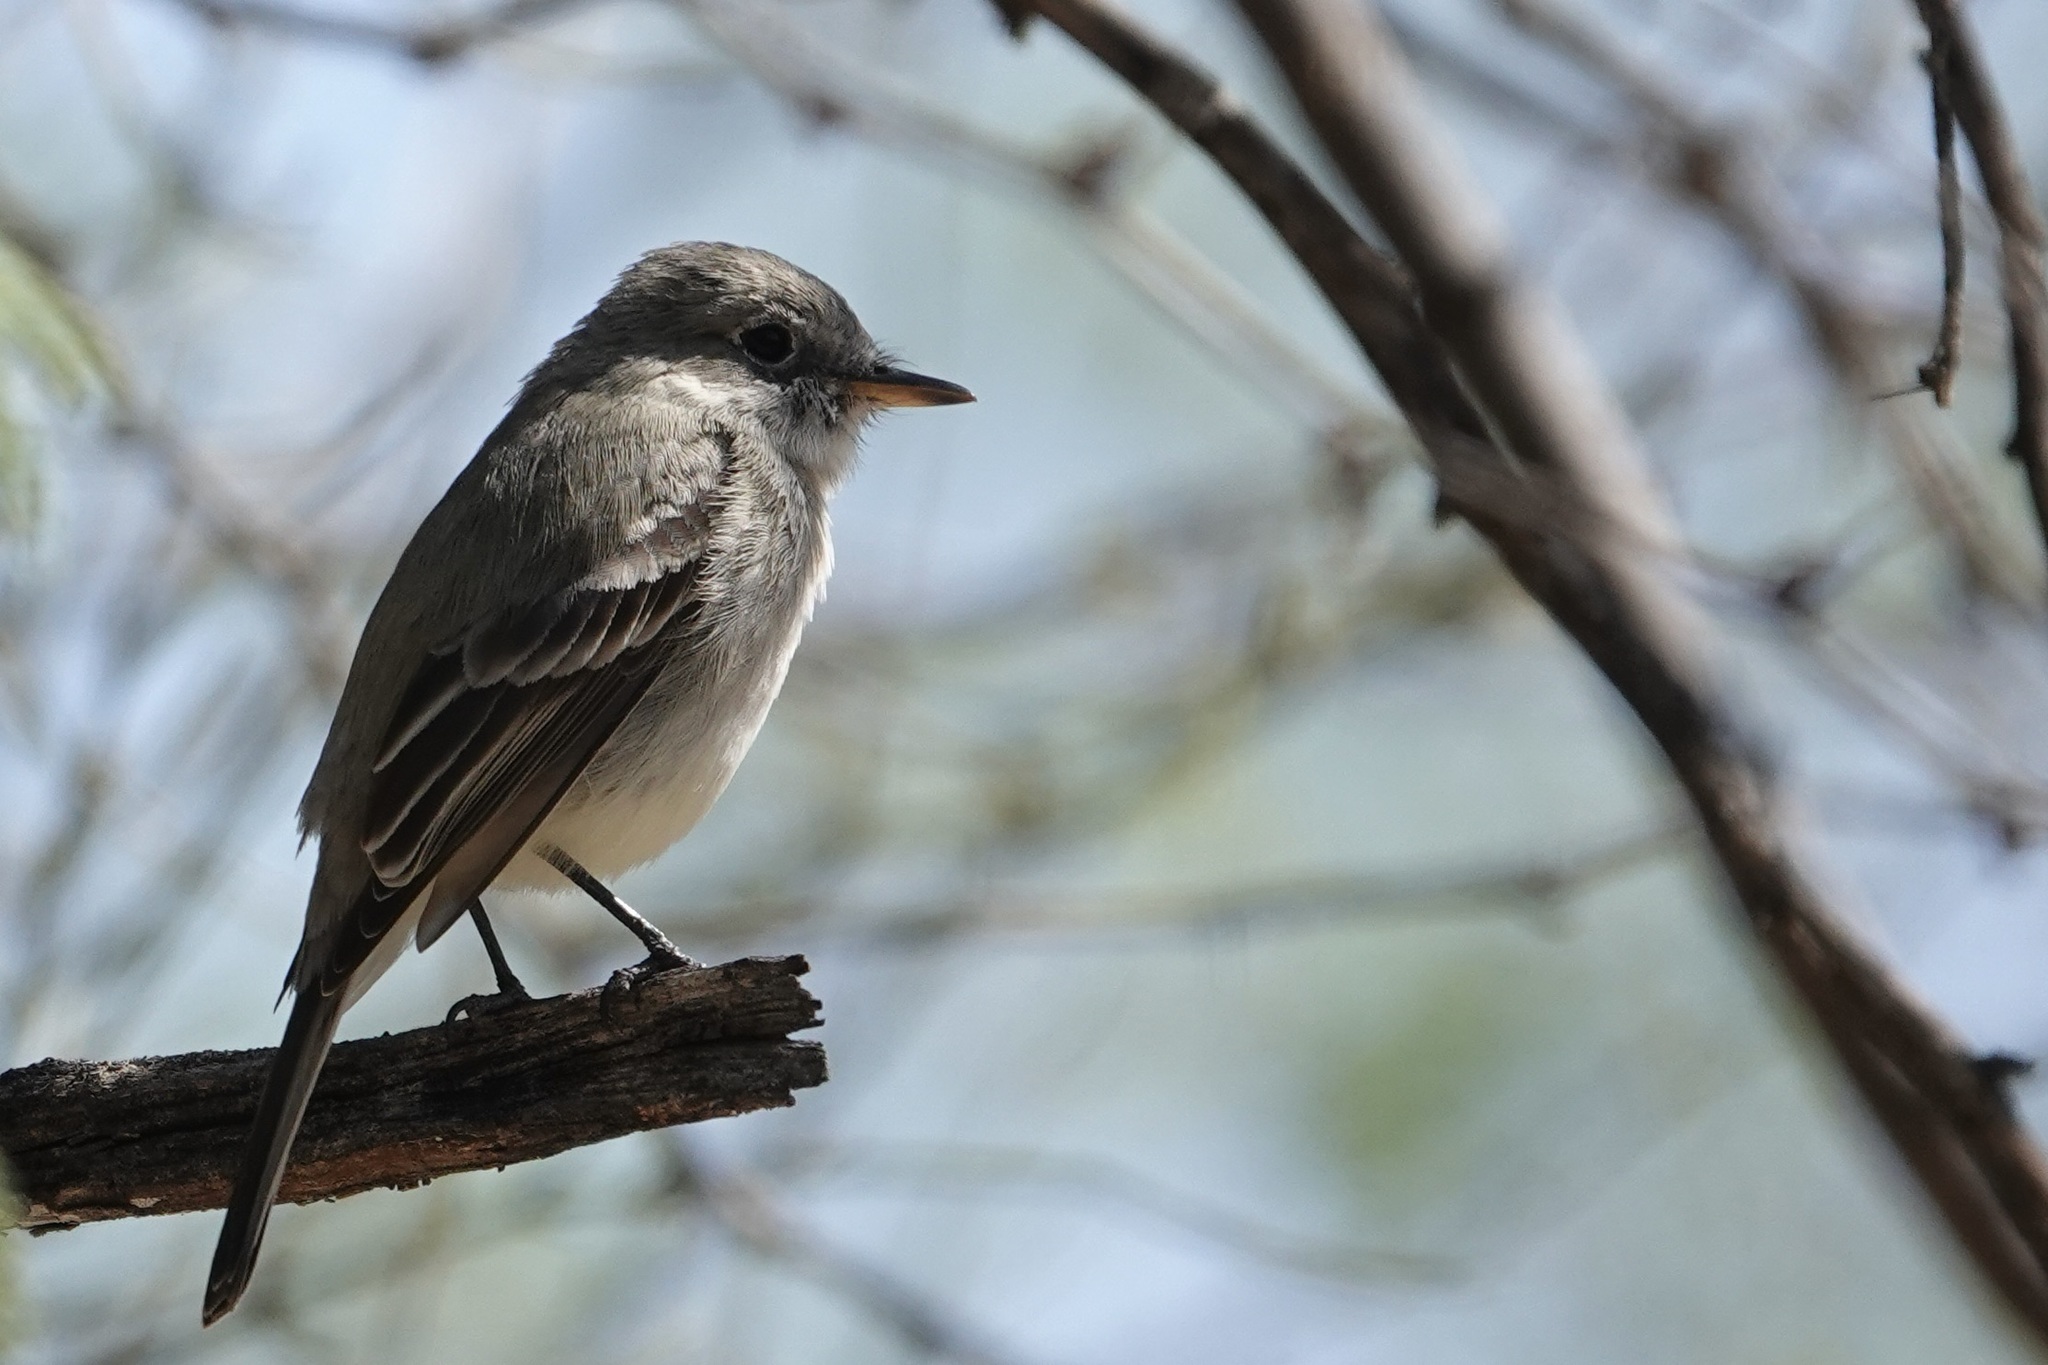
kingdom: Animalia
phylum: Chordata
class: Aves
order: Passeriformes
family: Tyrannidae
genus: Empidonax
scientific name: Empidonax wrightii
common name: Gray flycatcher
